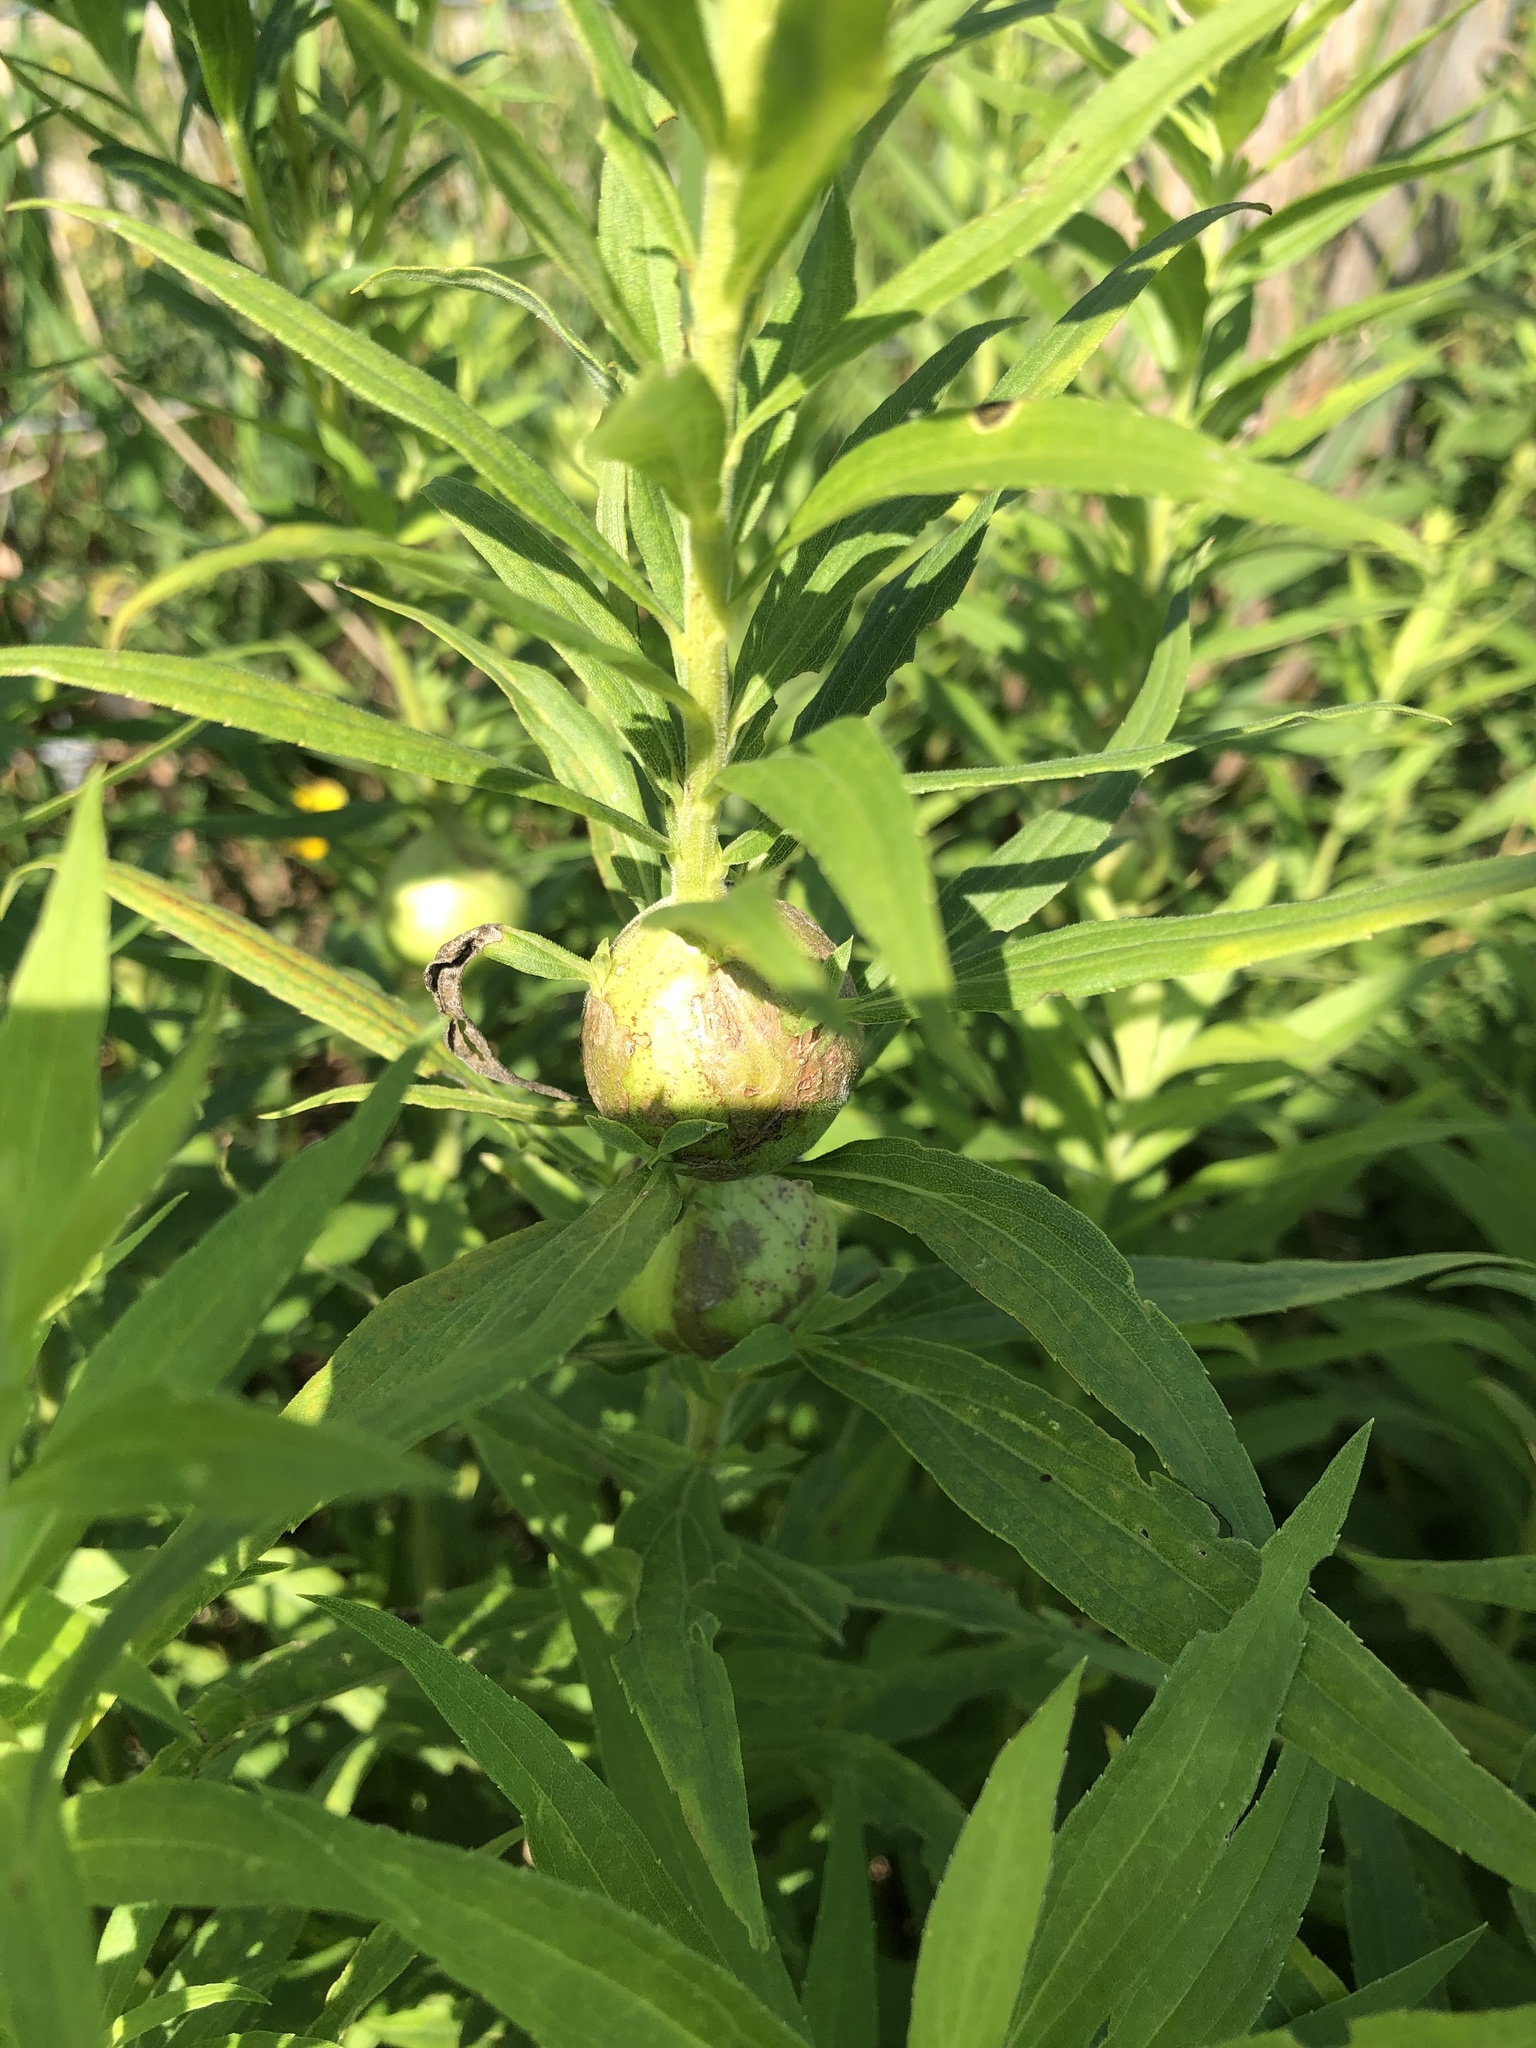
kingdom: Animalia
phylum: Arthropoda
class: Insecta
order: Diptera
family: Tephritidae
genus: Eurosta
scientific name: Eurosta solidaginis
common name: Goldenrod gall fly
